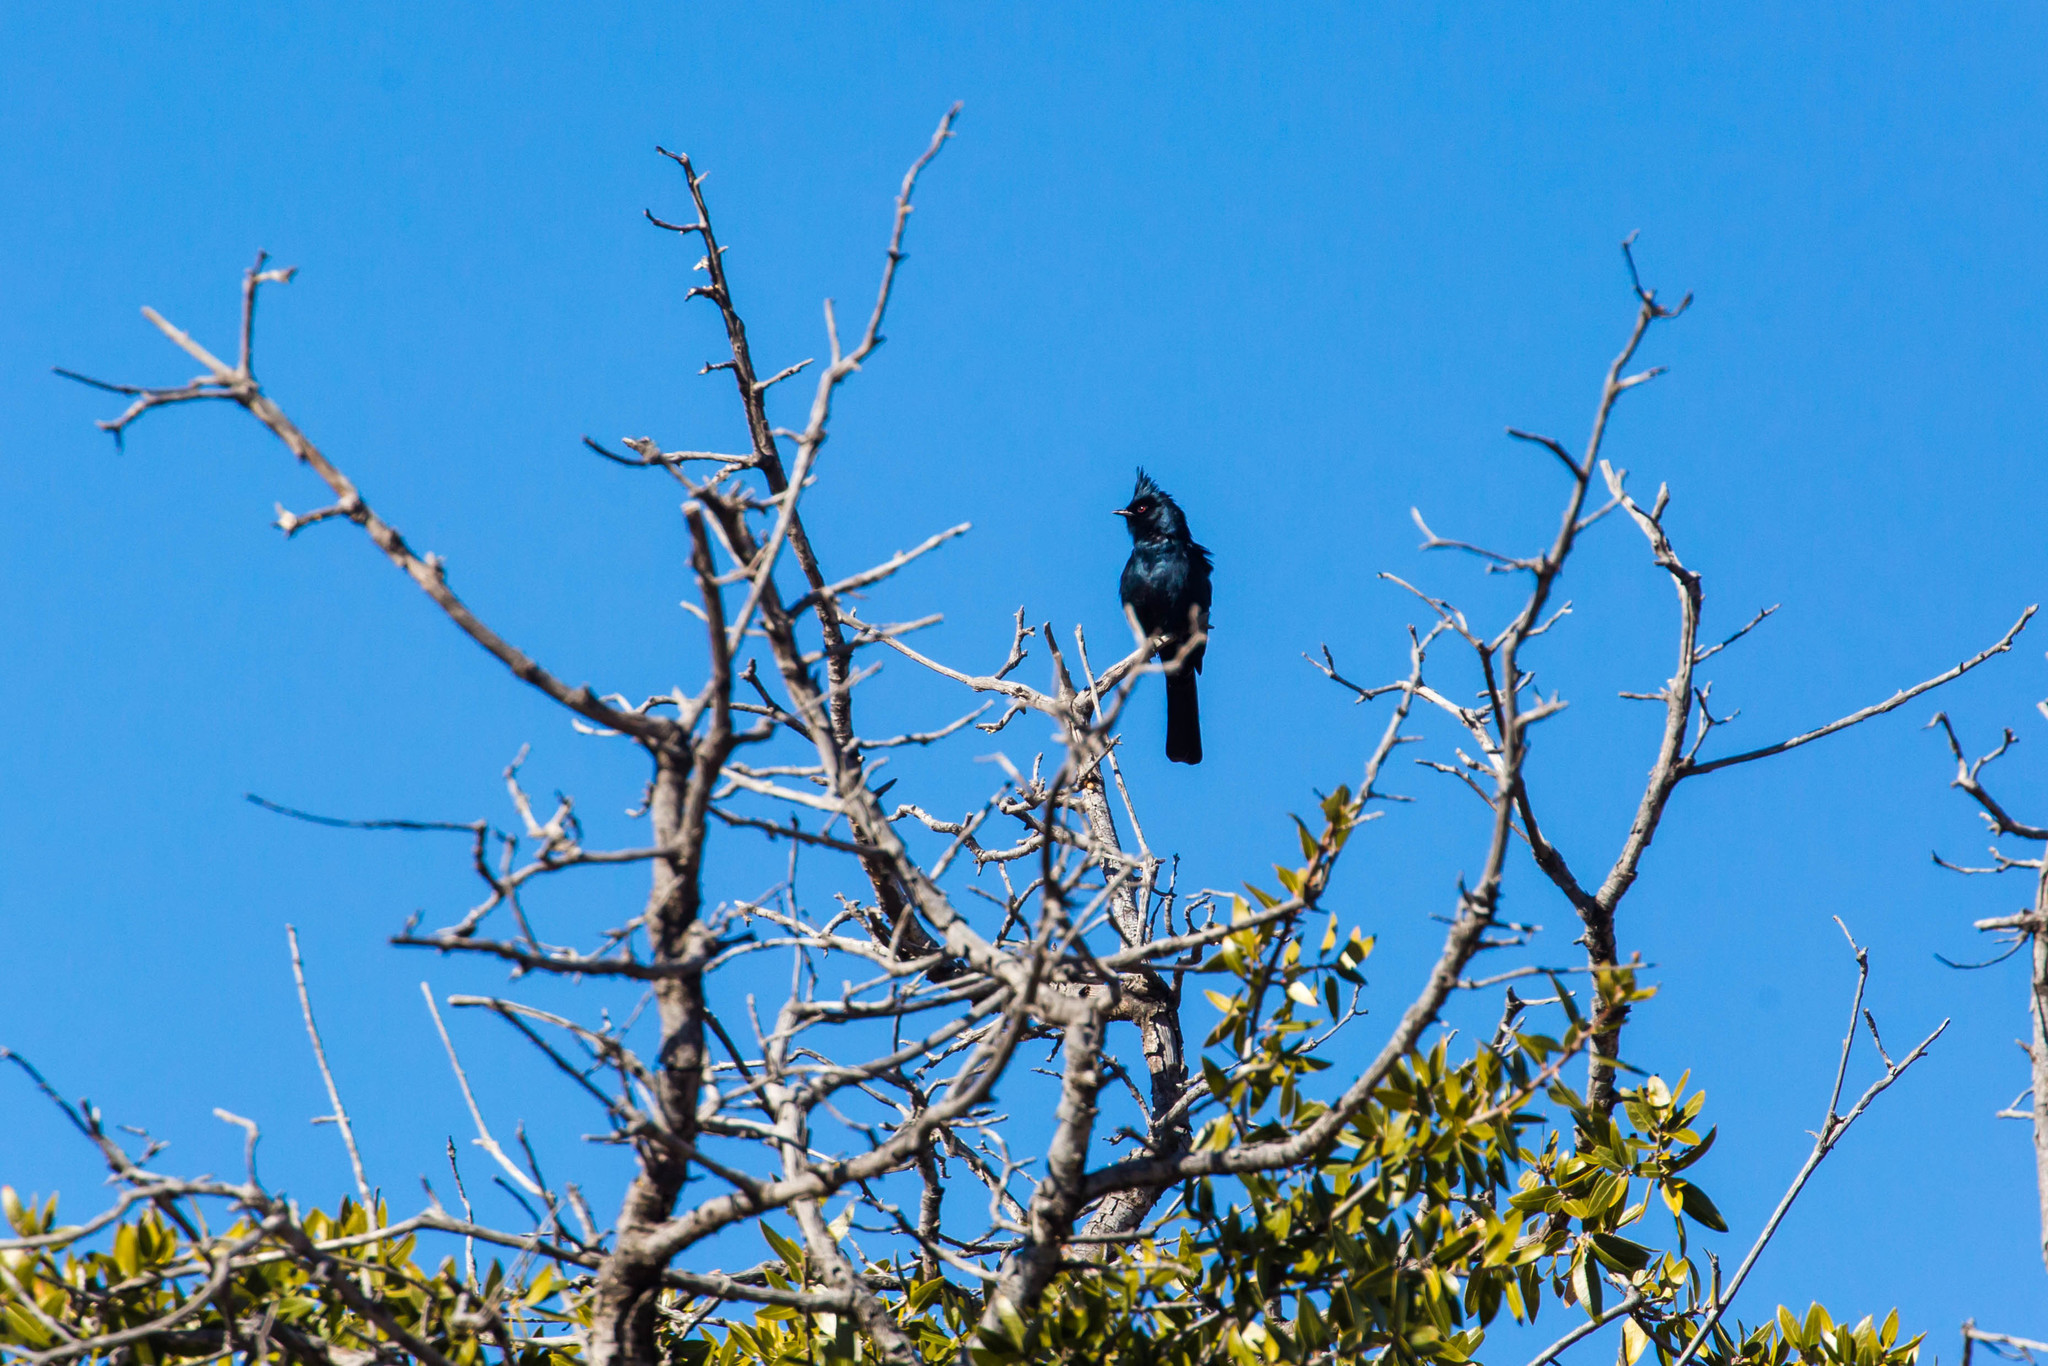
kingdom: Animalia
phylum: Chordata
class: Aves
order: Passeriformes
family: Ptilogonatidae
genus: Phainopepla
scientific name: Phainopepla nitens
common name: Phainopepla
